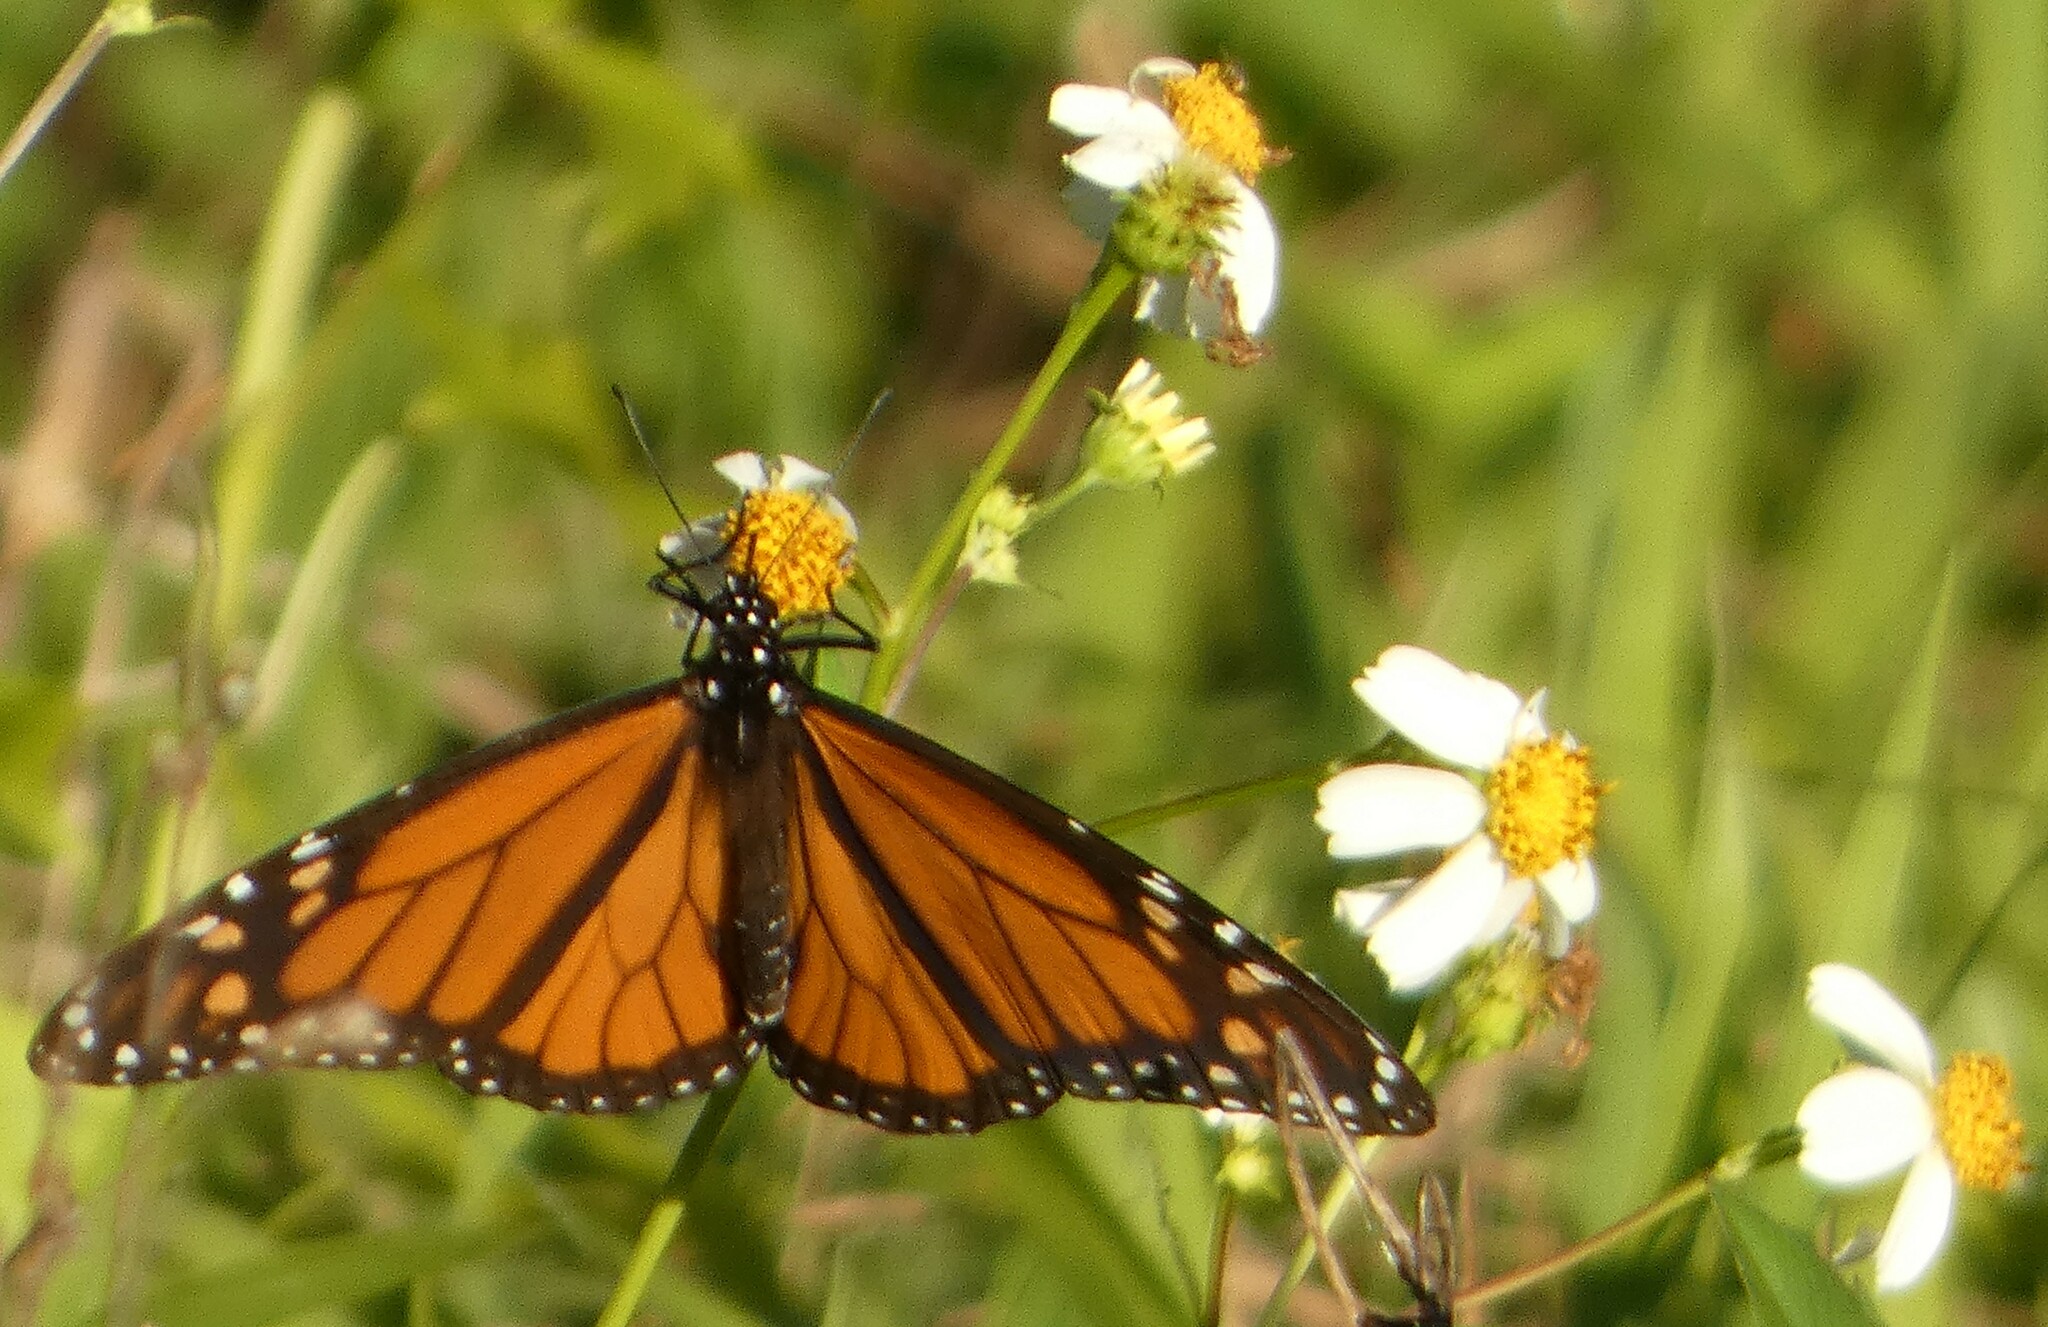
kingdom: Animalia
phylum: Arthropoda
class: Insecta
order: Lepidoptera
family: Nymphalidae
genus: Danaus
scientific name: Danaus plexippus
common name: Monarch
